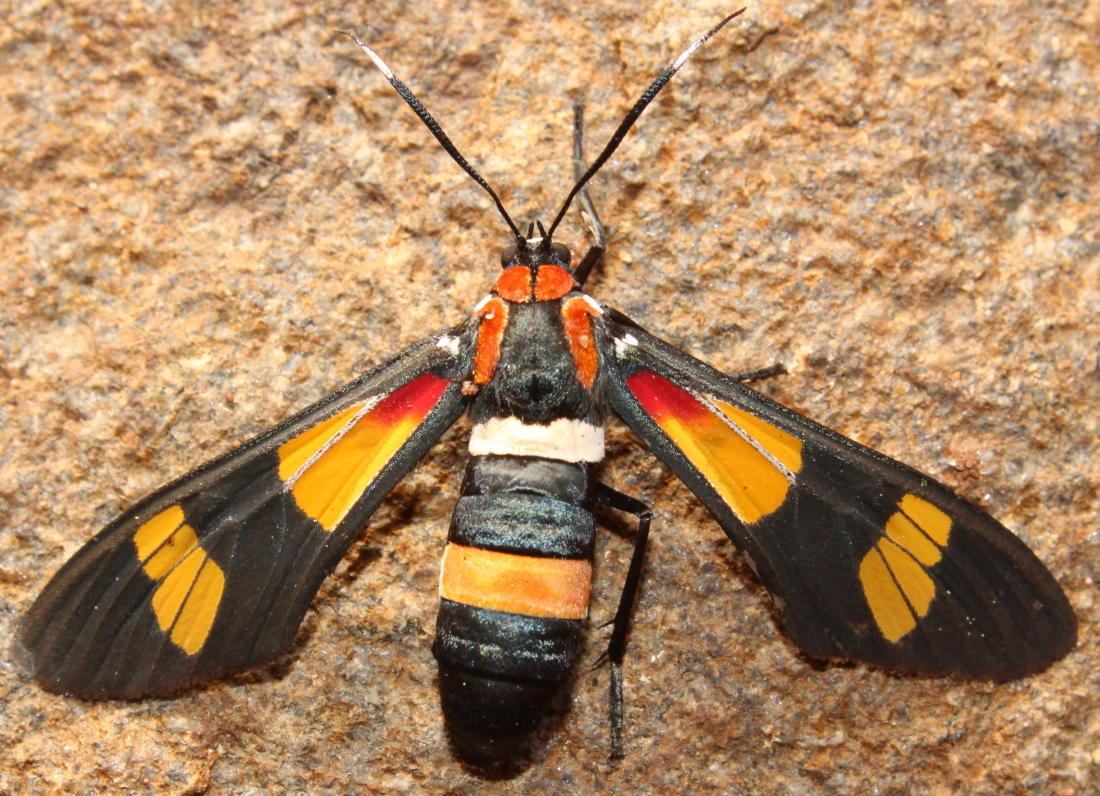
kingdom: Animalia
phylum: Arthropoda
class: Insecta
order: Lepidoptera
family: Erebidae
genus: Euchromia
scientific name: Euchromia amoena
